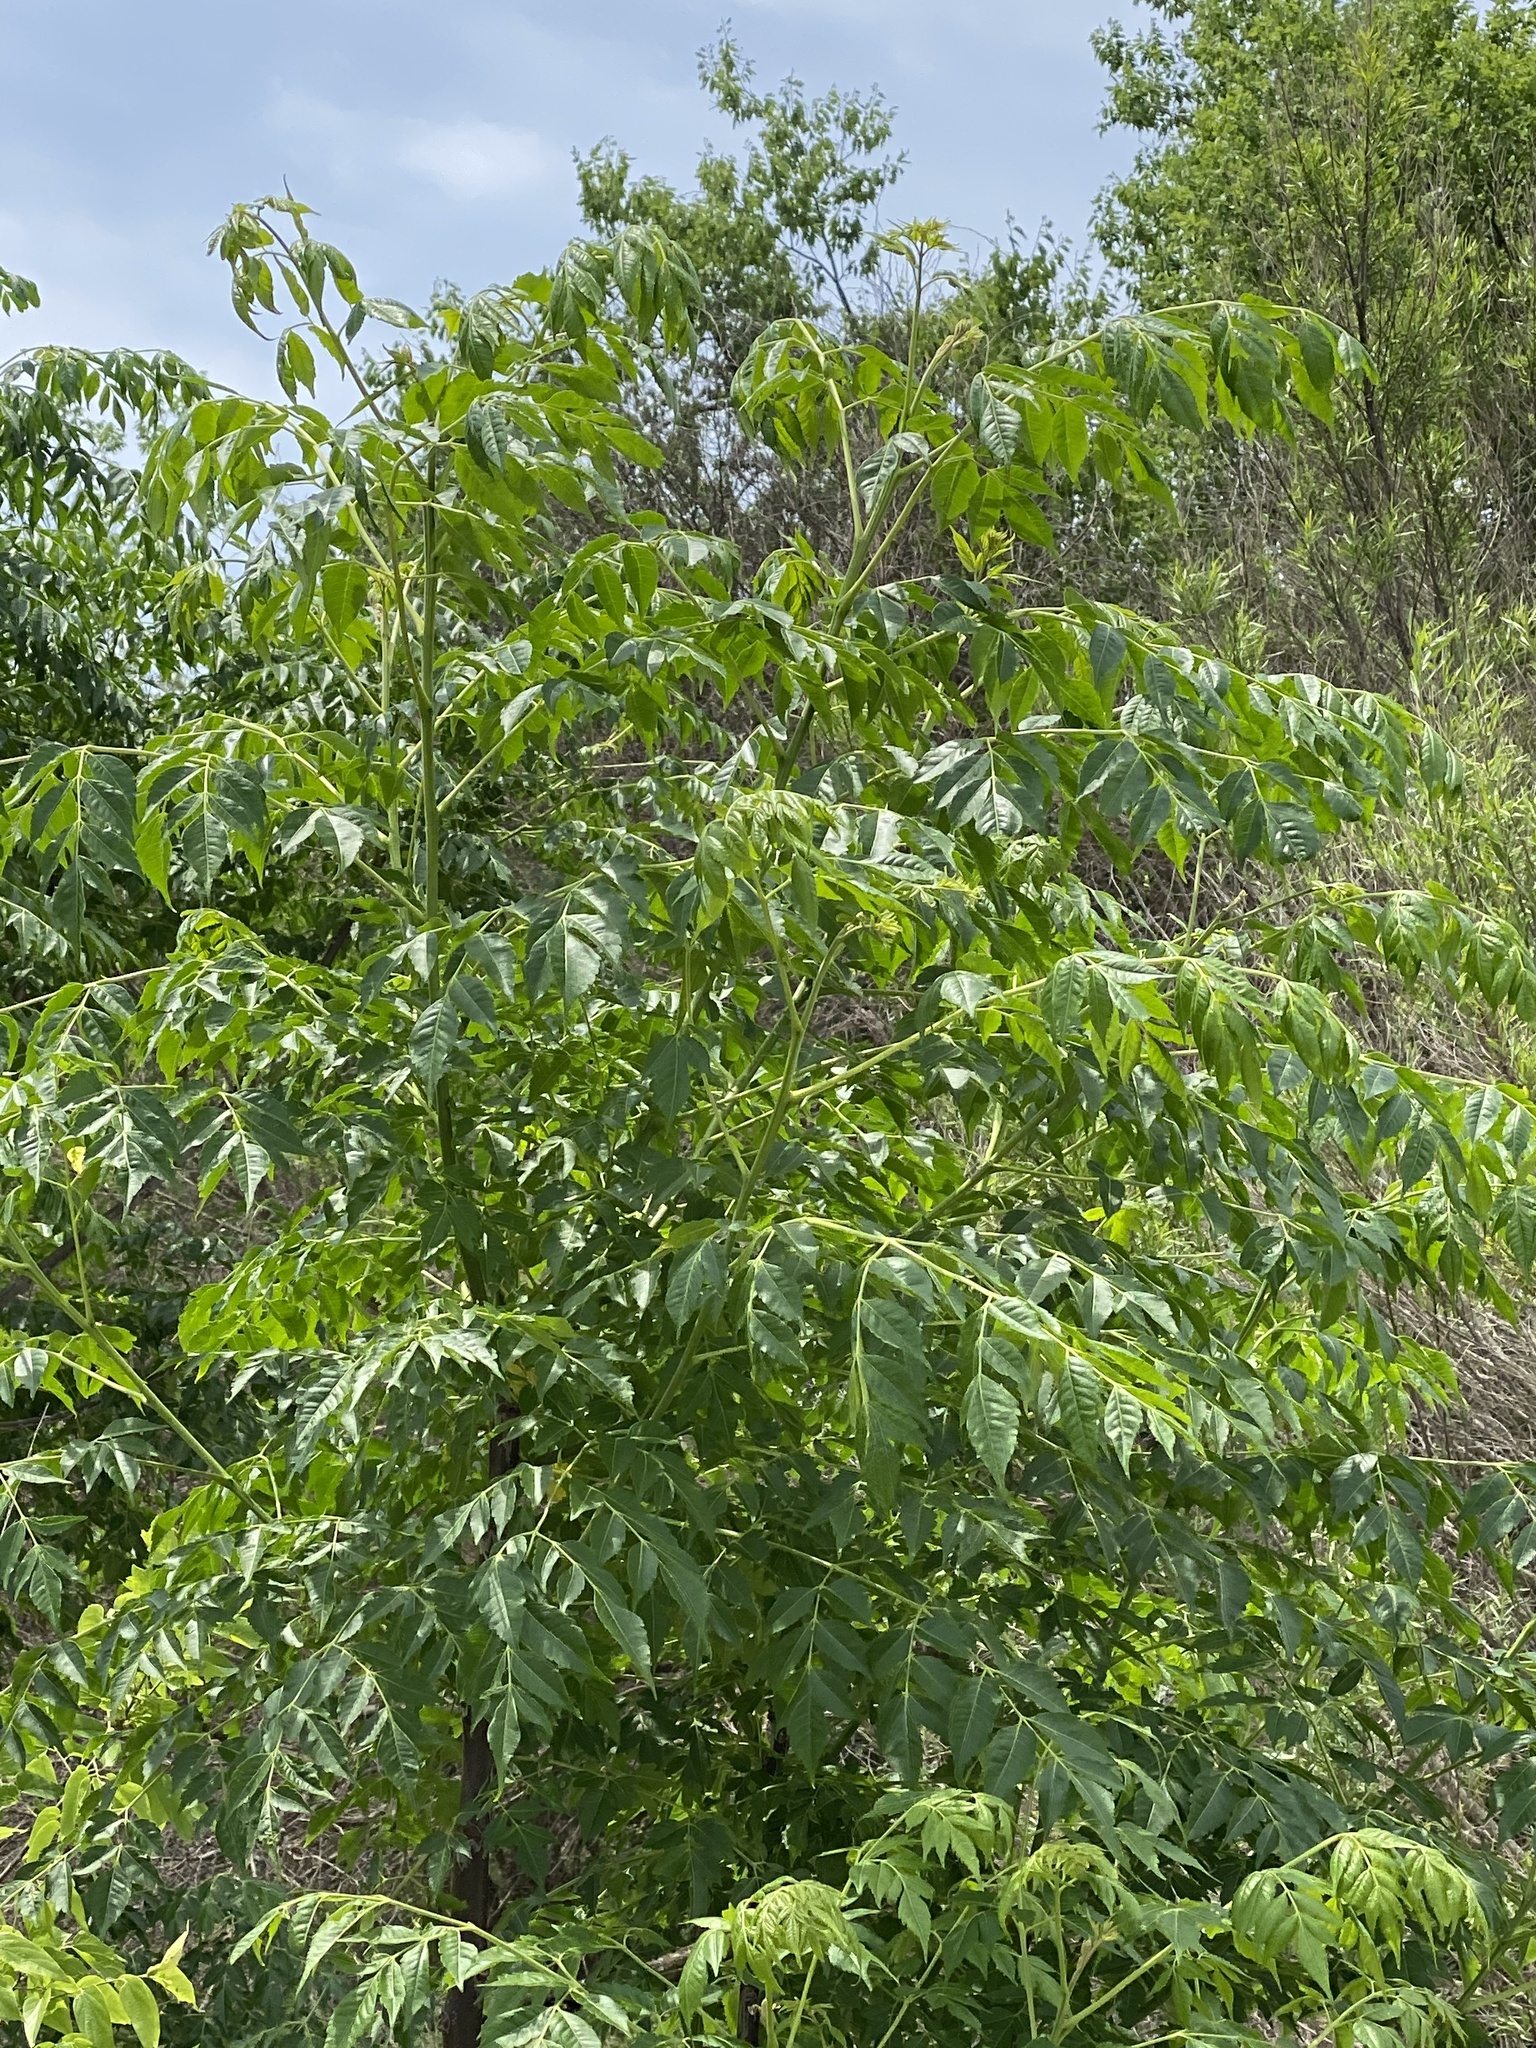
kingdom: Plantae
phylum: Tracheophyta
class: Magnoliopsida
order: Sapindales
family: Meliaceae
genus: Melia
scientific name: Melia azedarach
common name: Chinaberrytree
